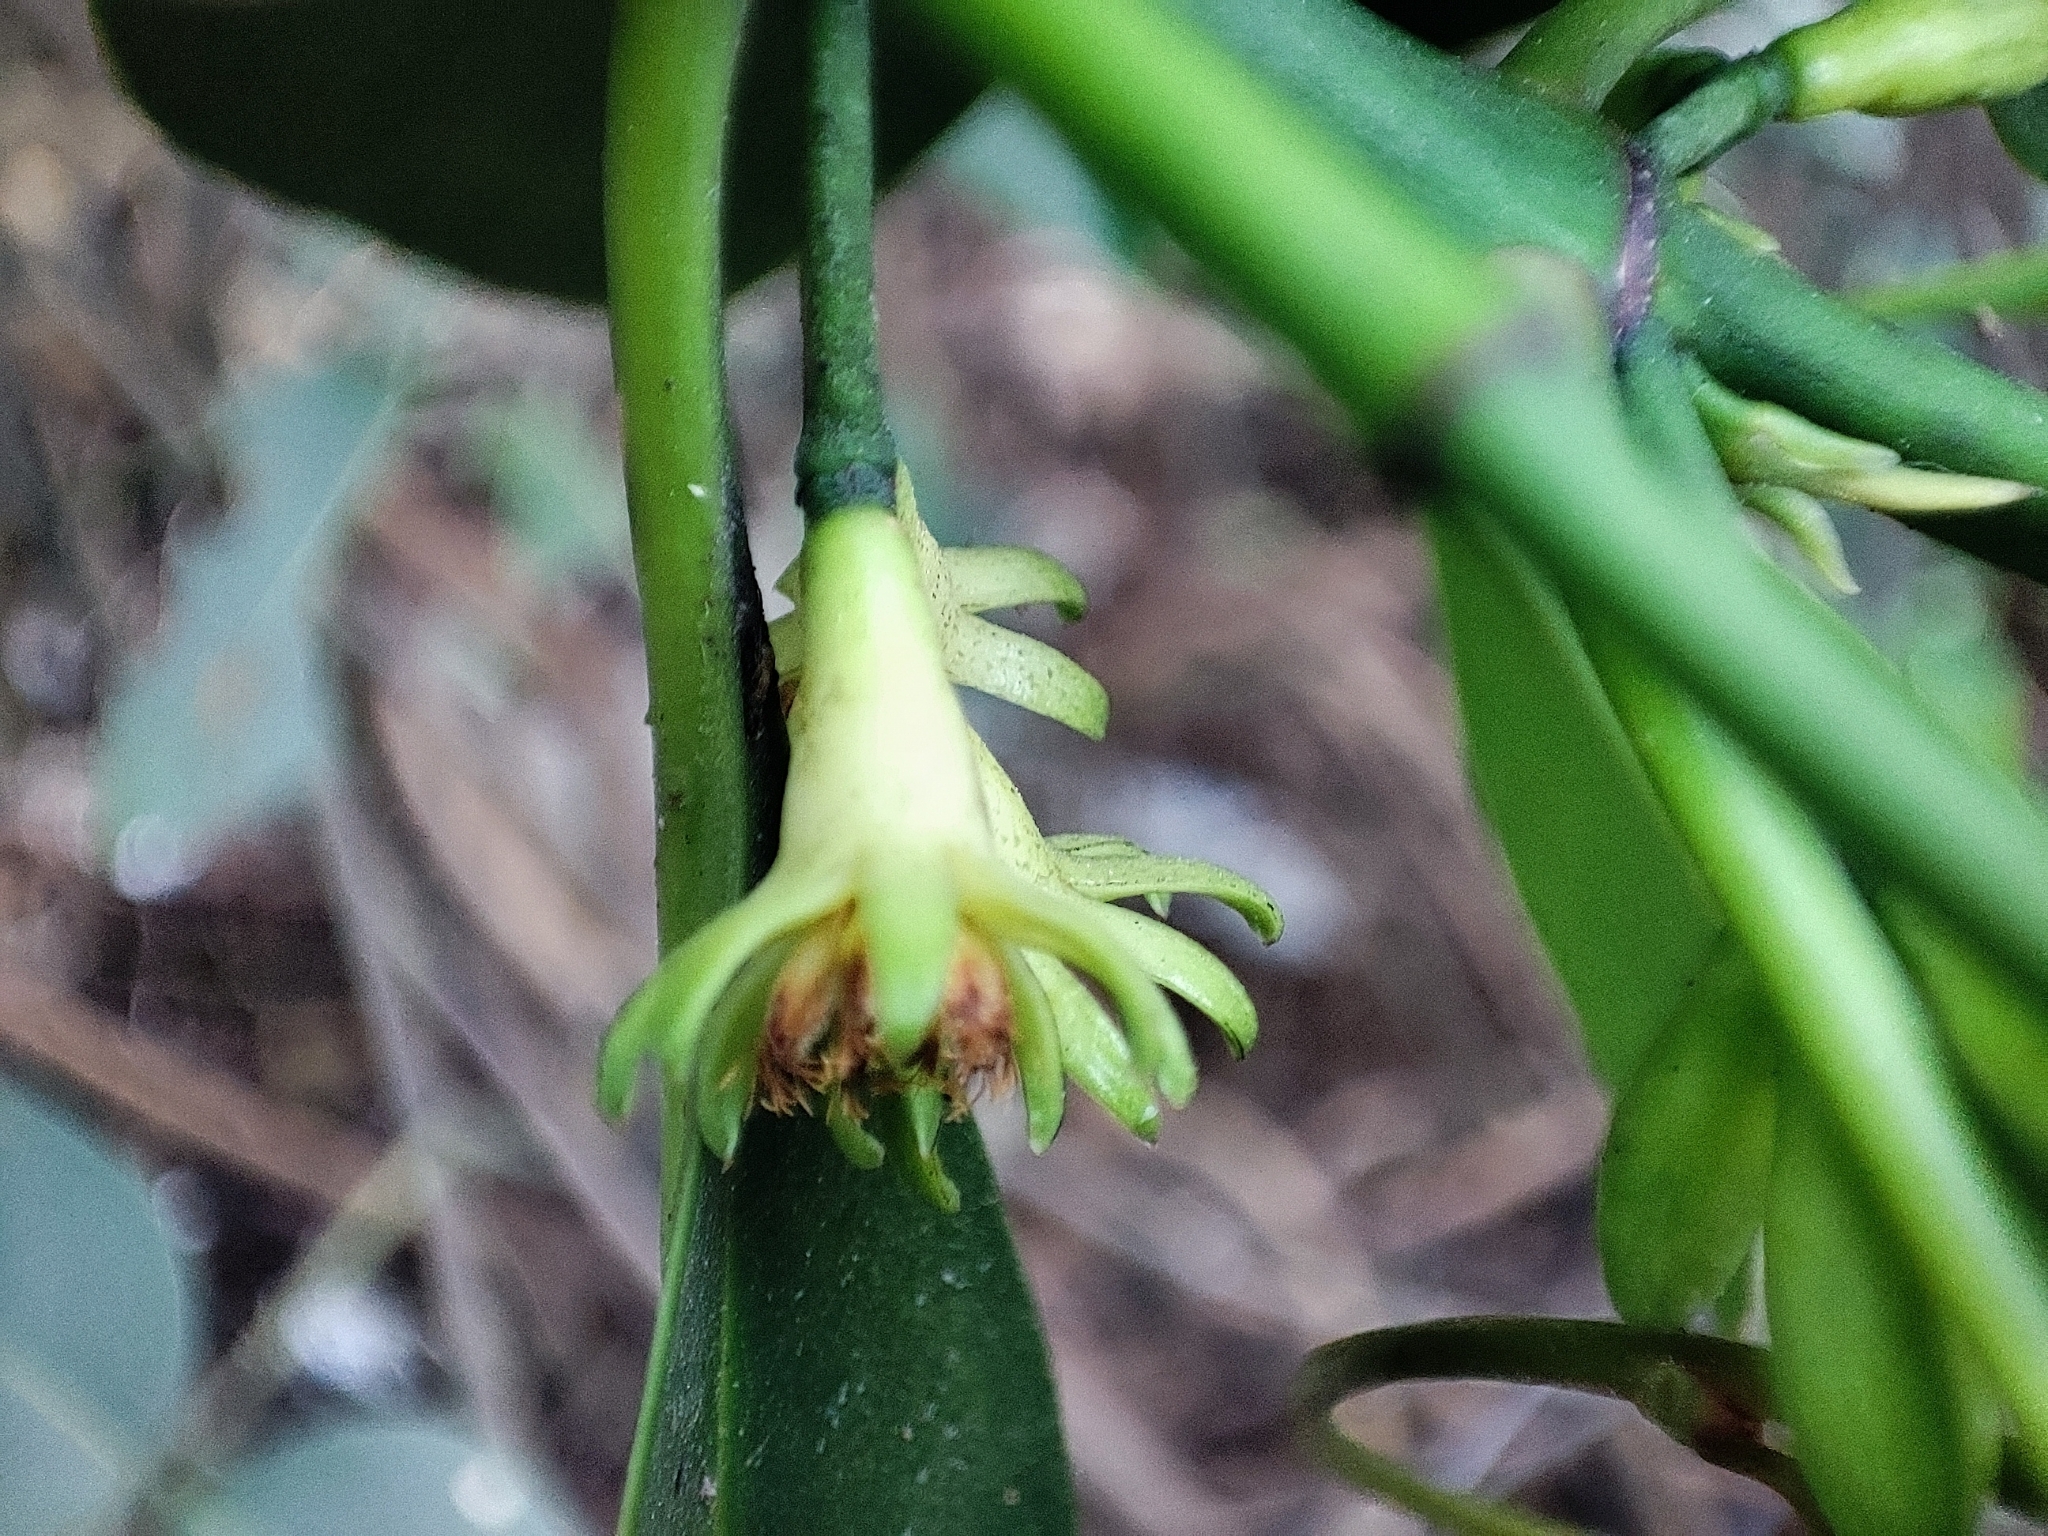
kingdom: Plantae
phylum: Tracheophyta
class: Magnoliopsida
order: Malpighiales
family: Rhizophoraceae
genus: Bruguiera
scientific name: Bruguiera cylindrica
